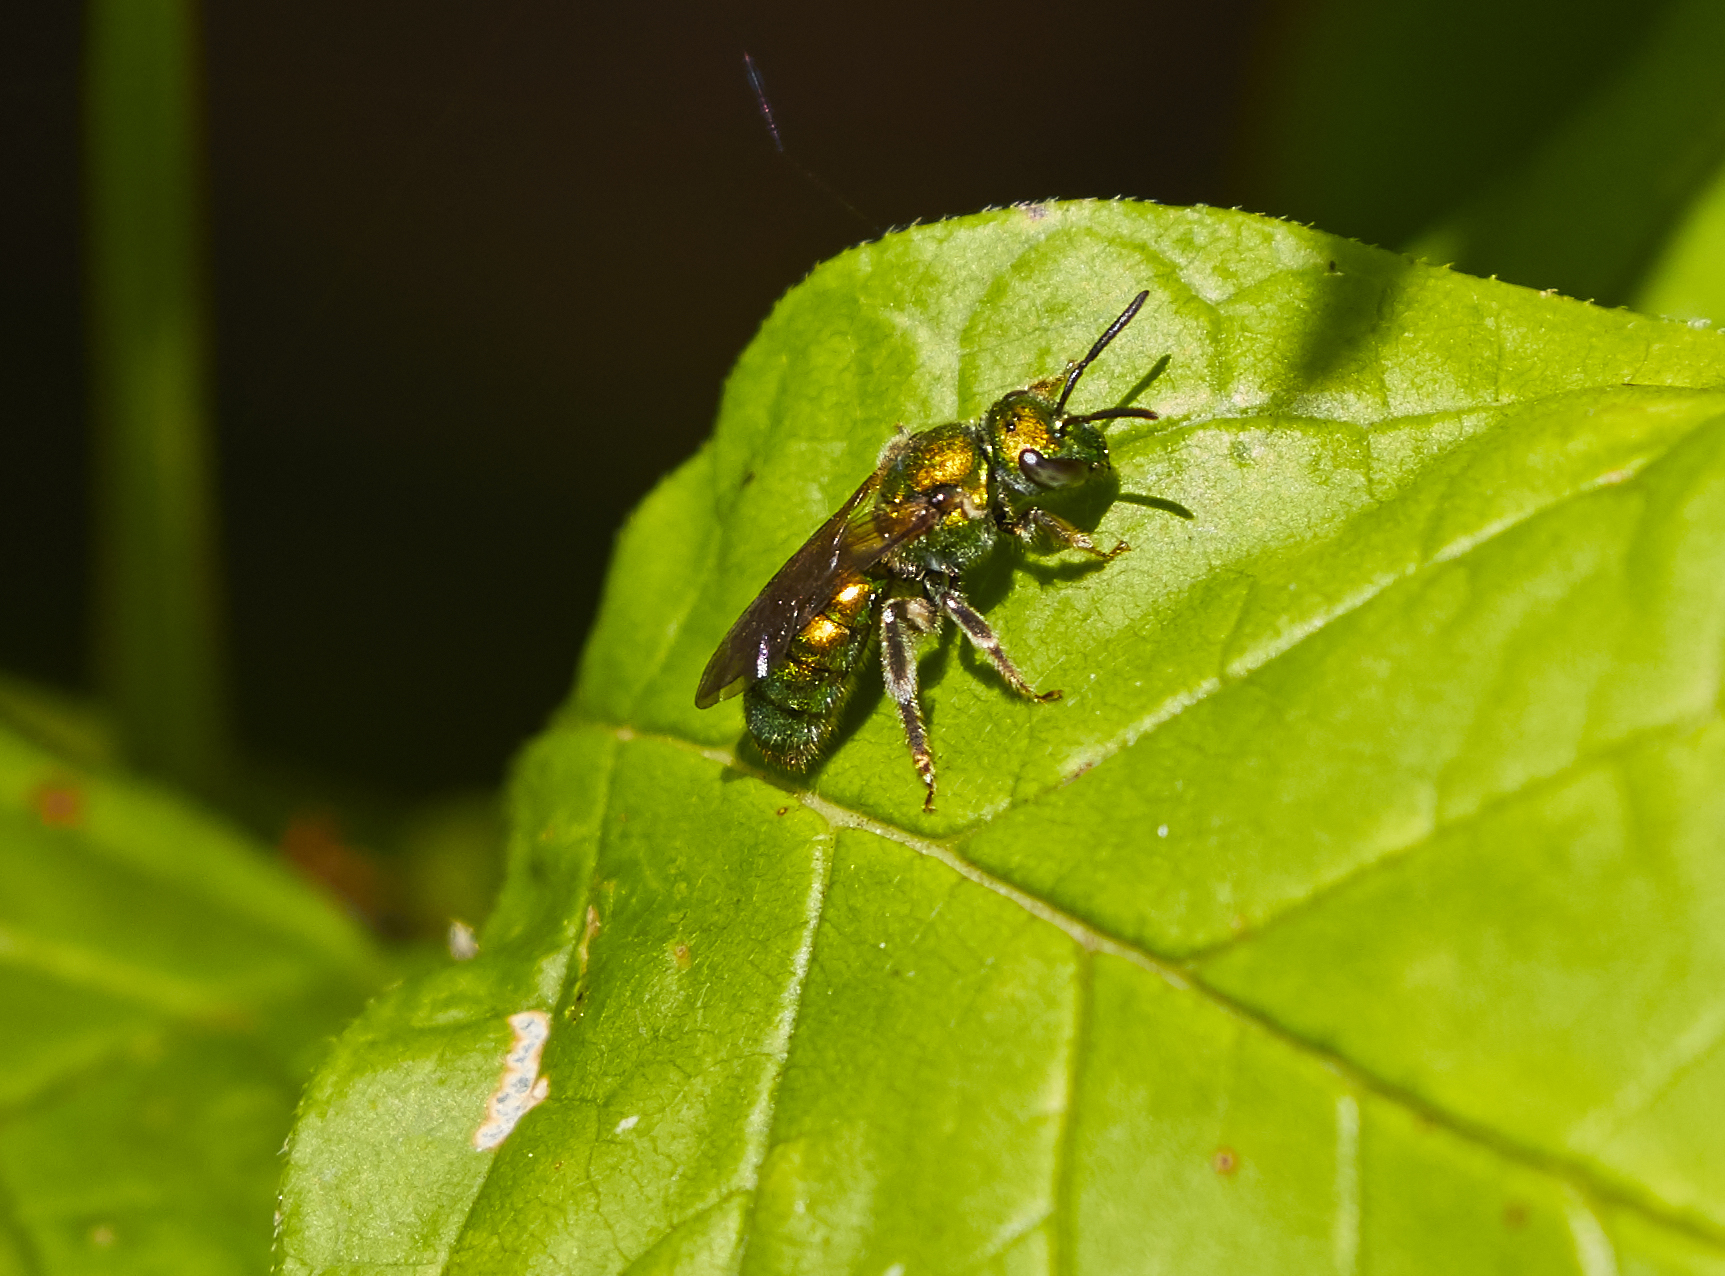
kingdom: Animalia
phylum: Arthropoda
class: Insecta
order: Hymenoptera
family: Halictidae
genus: Augochlora
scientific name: Augochlora pura
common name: Pure green sweat bee
